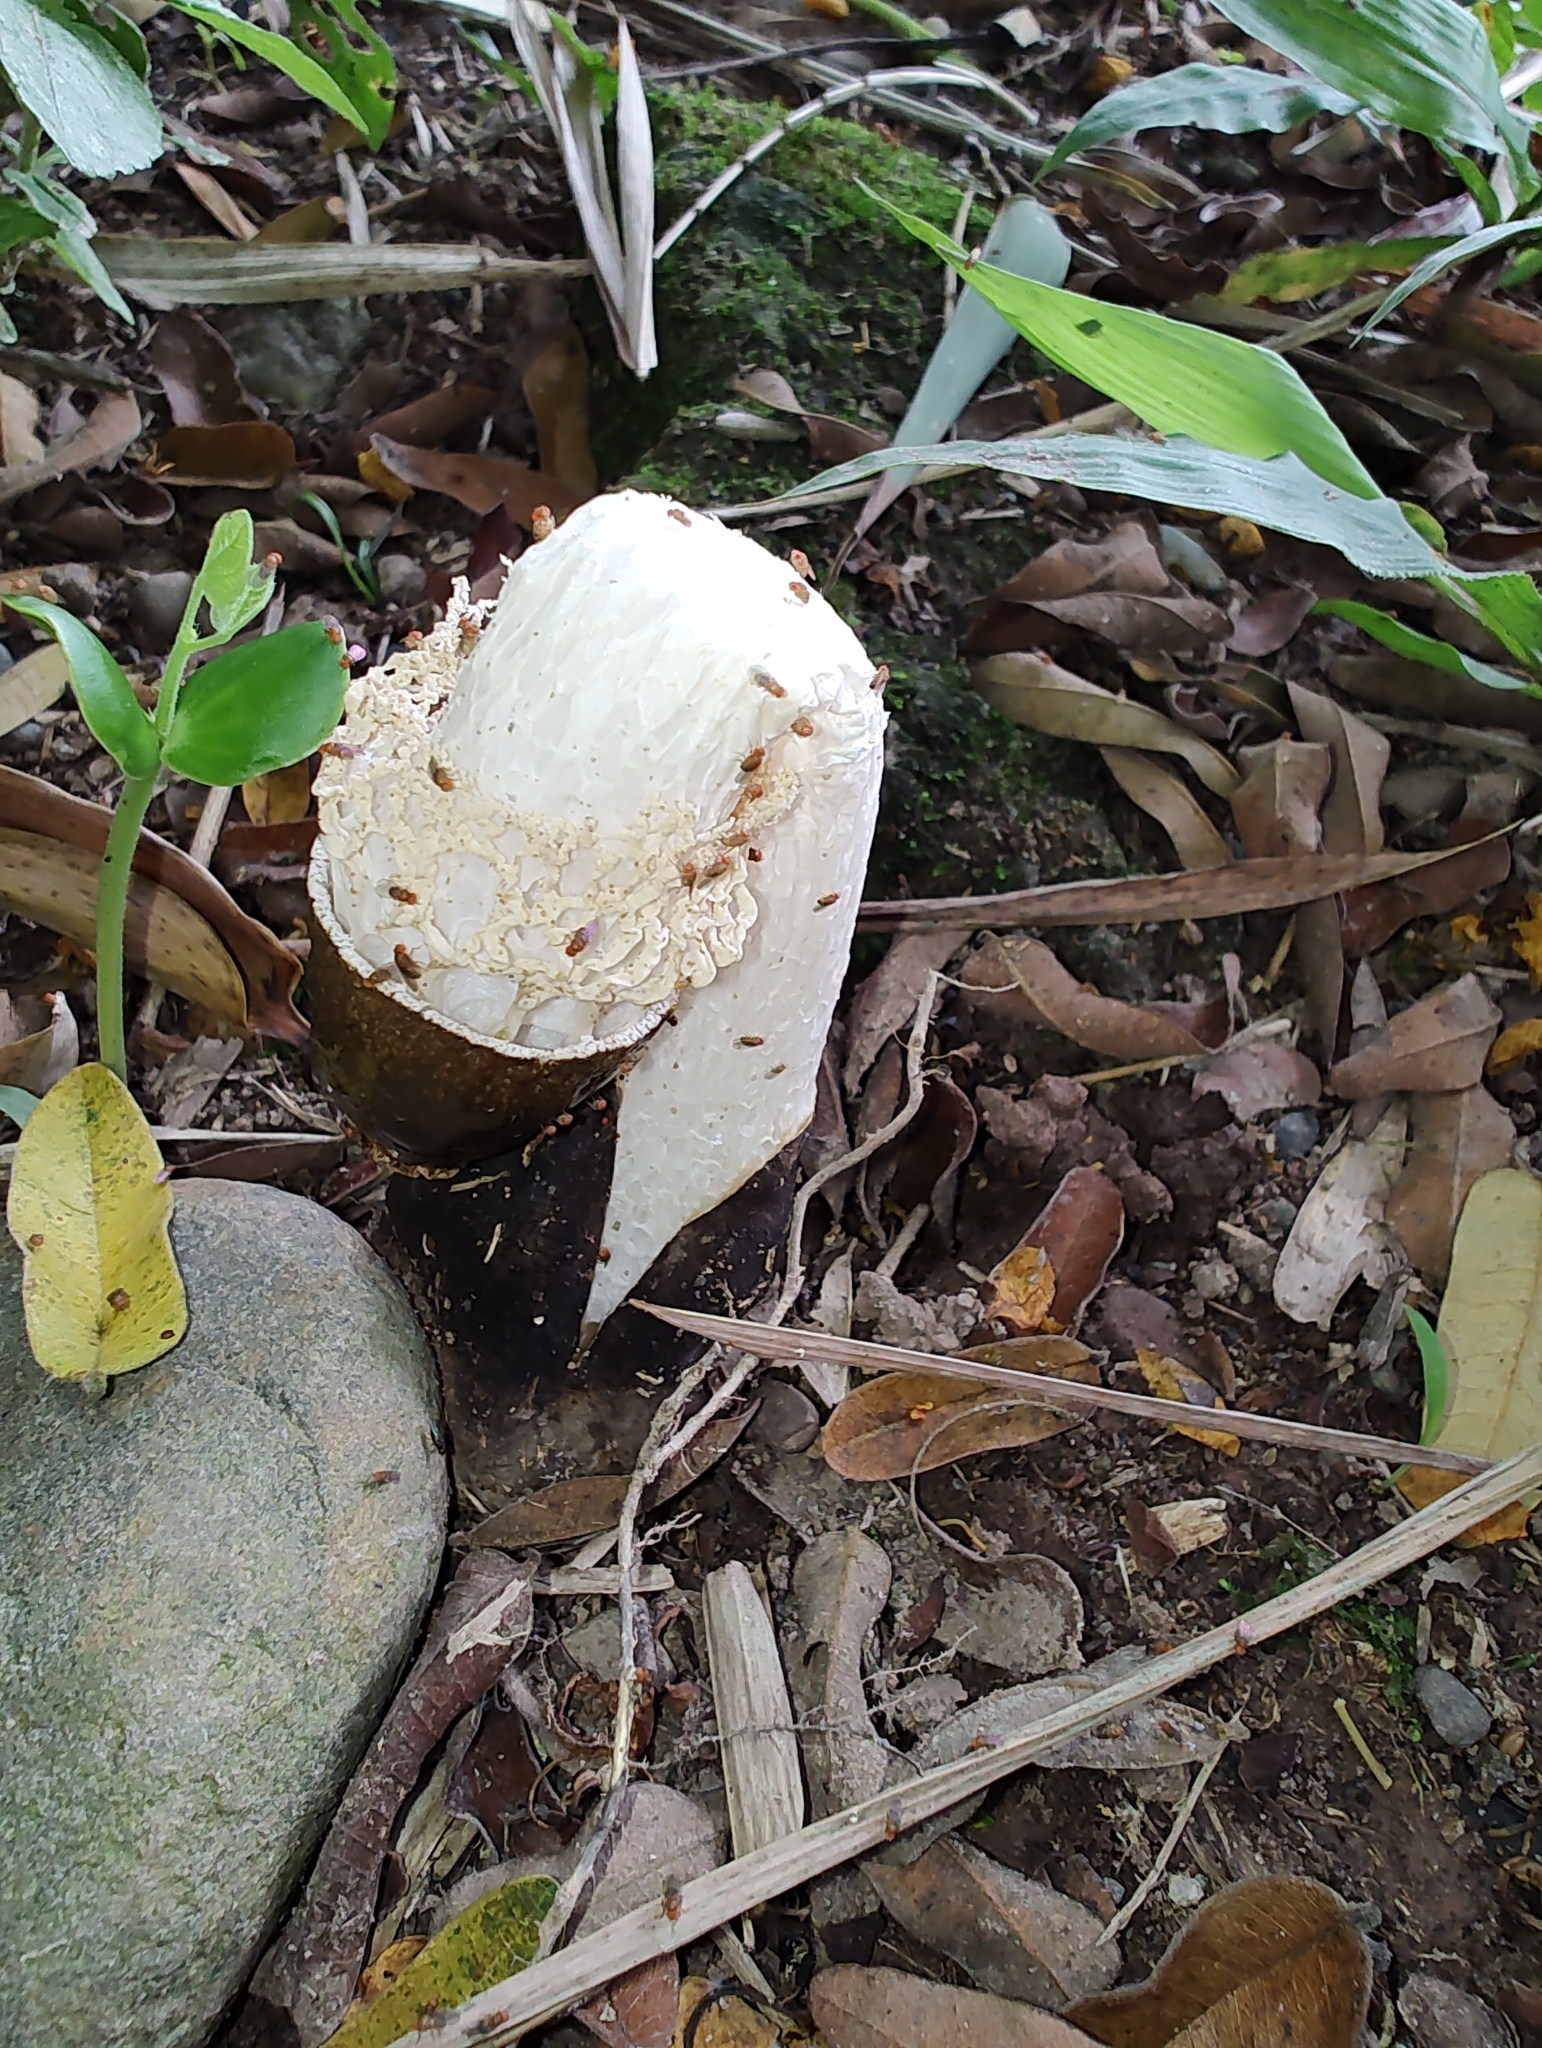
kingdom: Fungi
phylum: Basidiomycota
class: Agaricomycetes
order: Phallales
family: Phallaceae
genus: Phallus
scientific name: Phallus atrovolvatus
